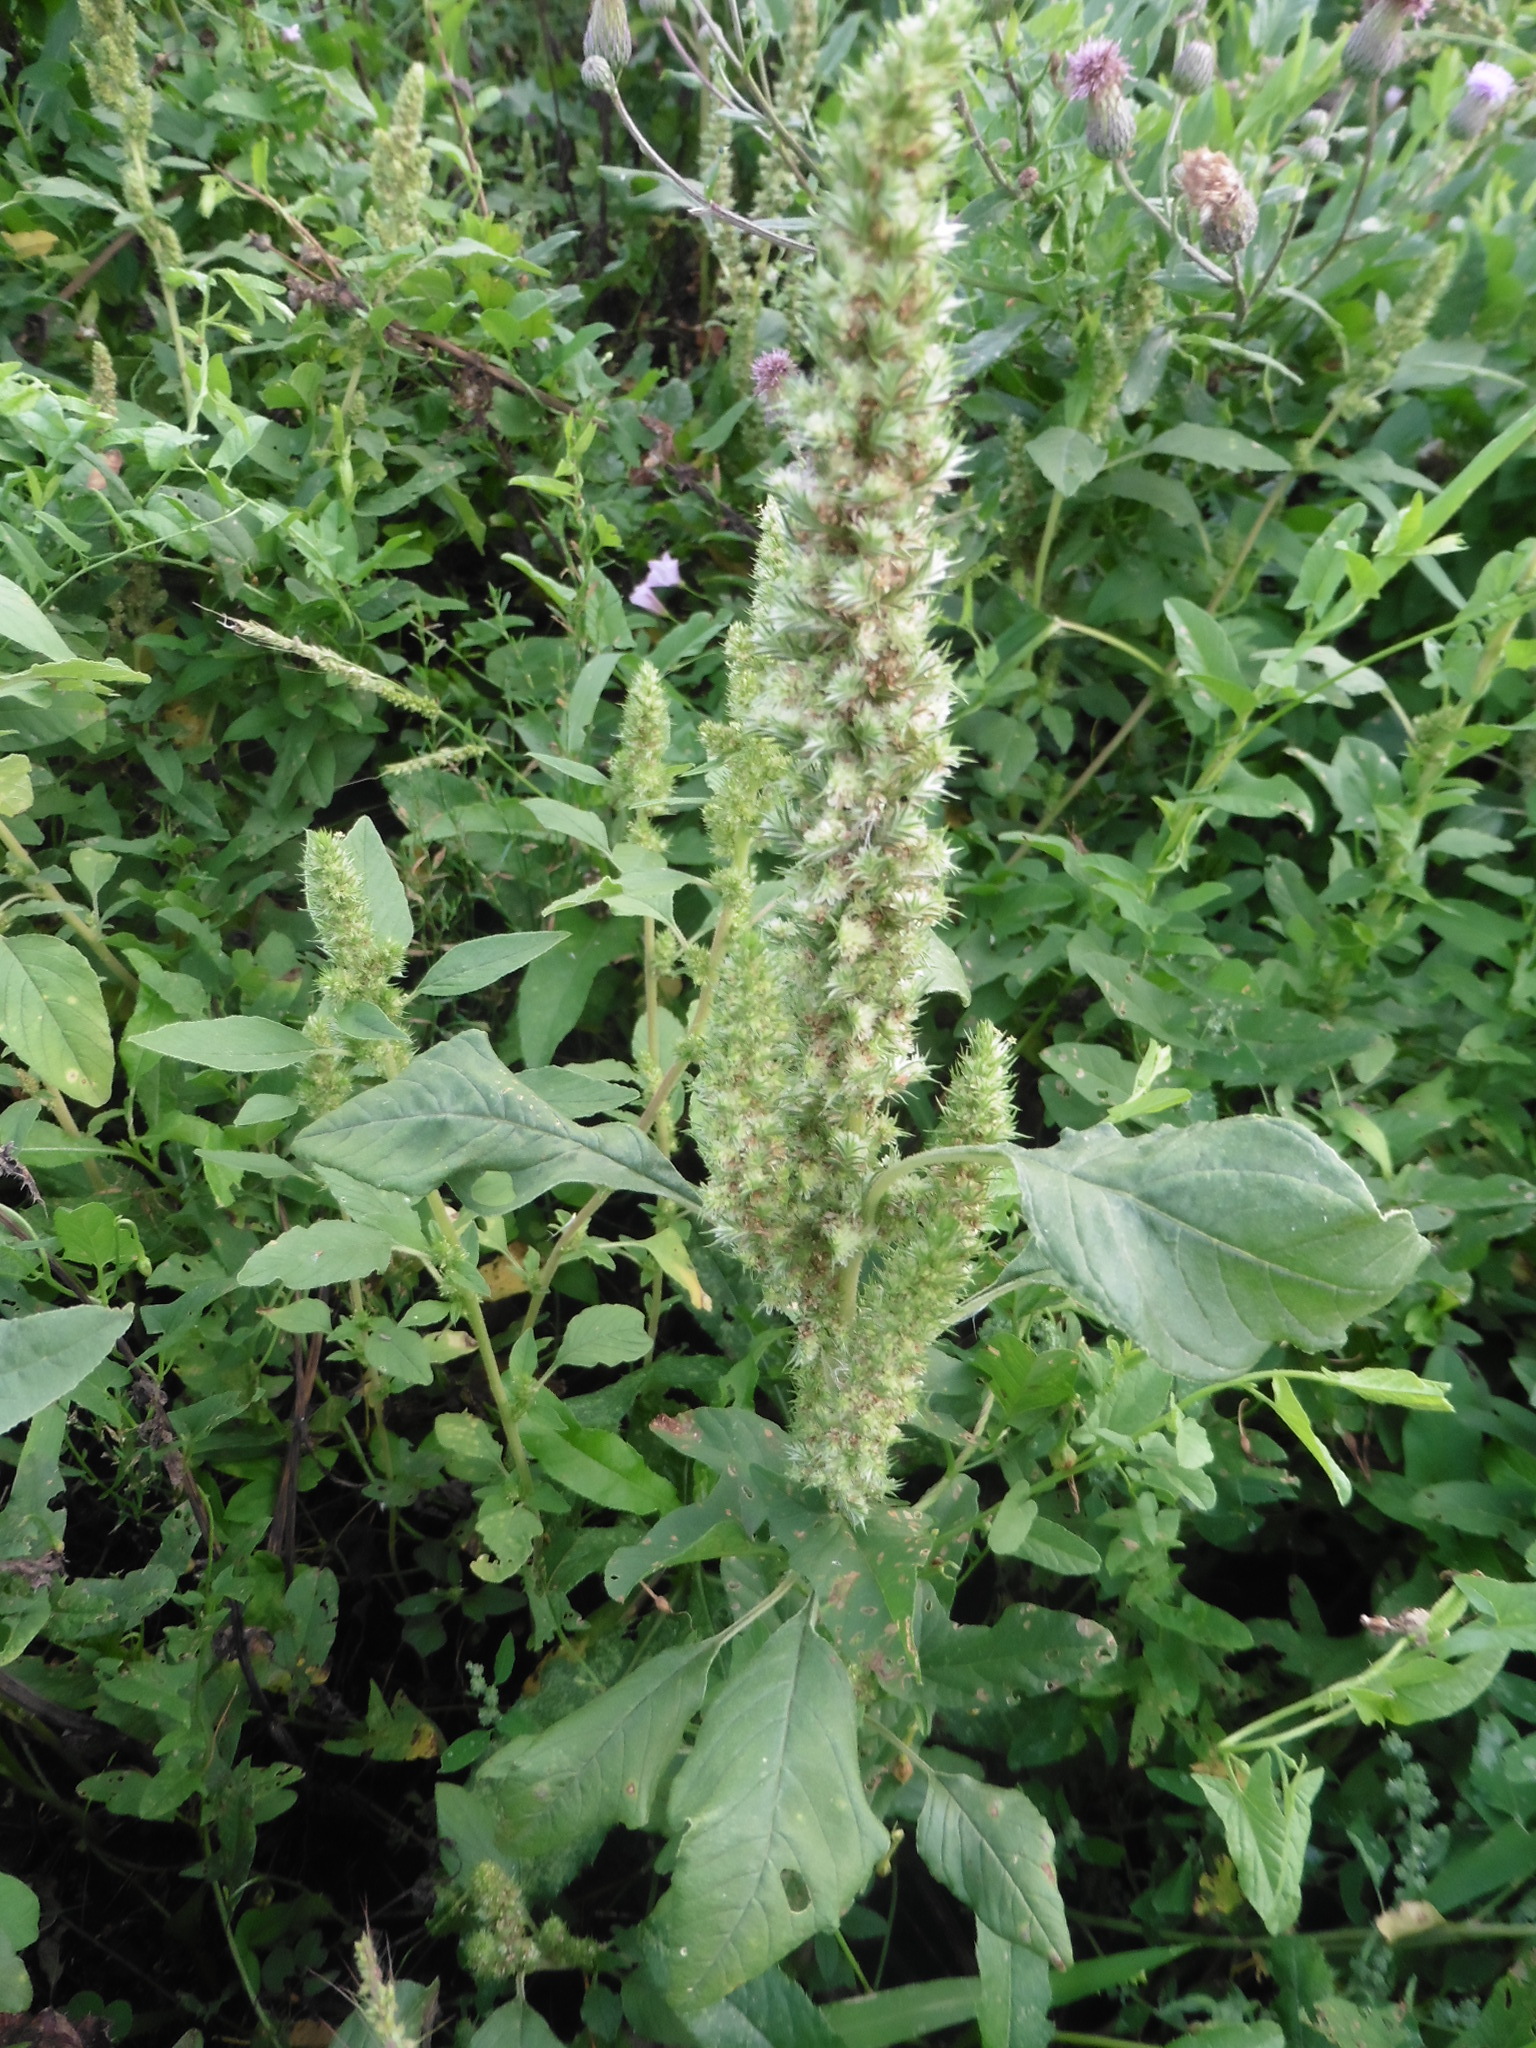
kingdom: Plantae
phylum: Tracheophyta
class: Magnoliopsida
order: Caryophyllales
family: Amaranthaceae
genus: Amaranthus
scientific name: Amaranthus retroflexus
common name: Redroot amaranth
